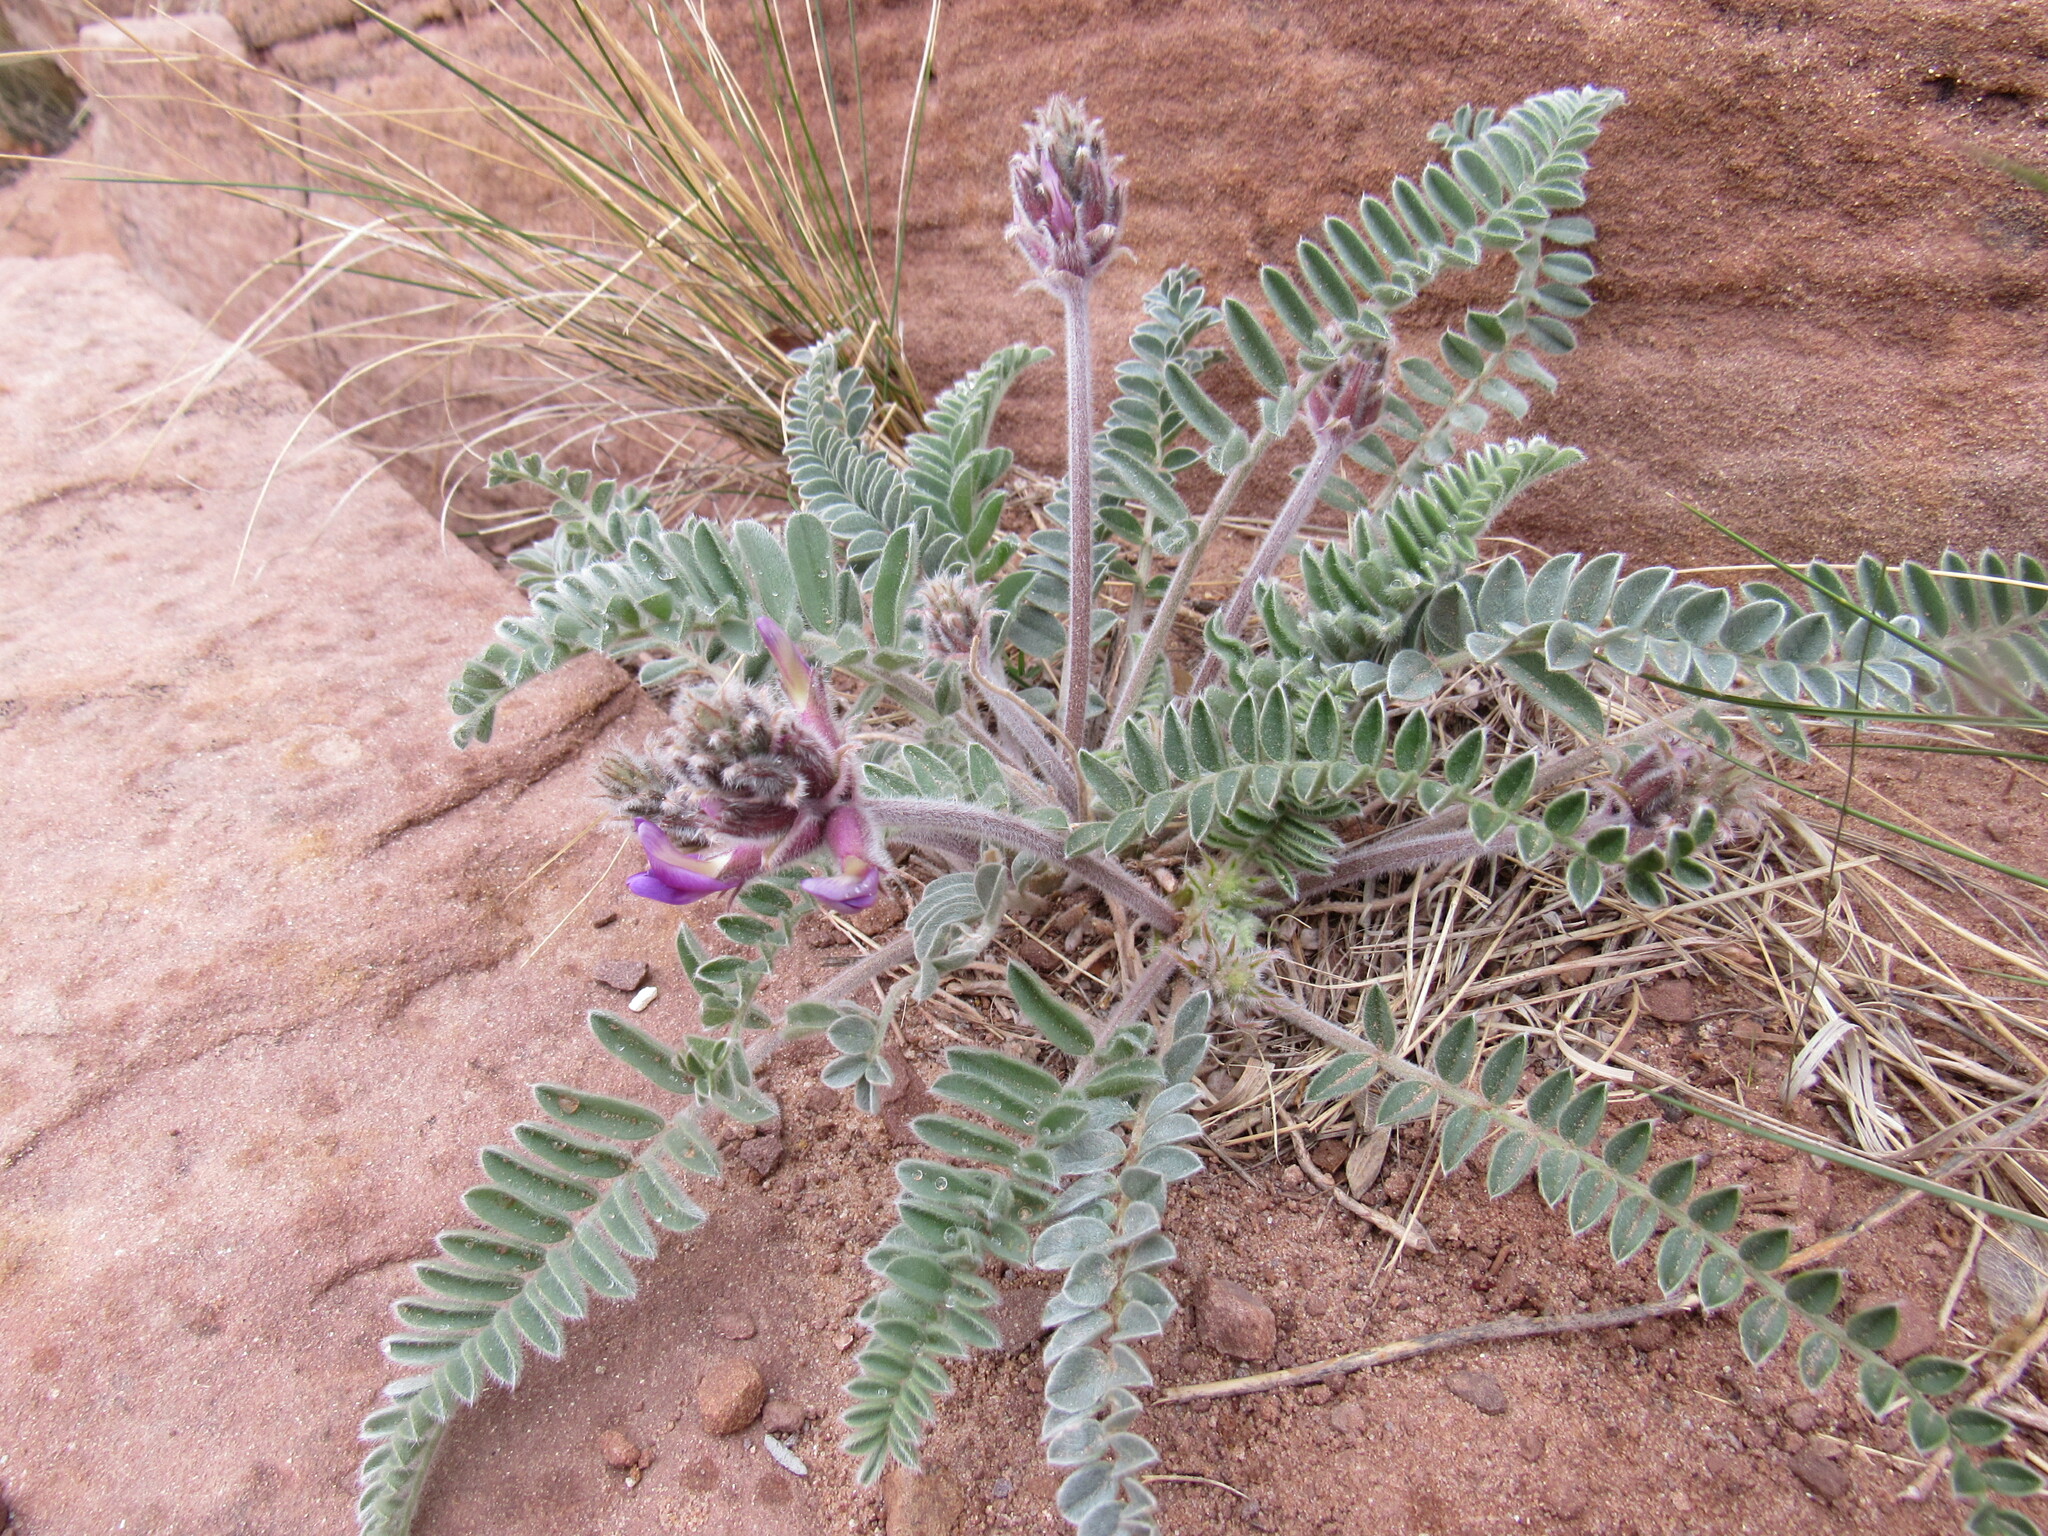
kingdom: Plantae
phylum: Tracheophyta
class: Magnoliopsida
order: Fabales
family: Fabaceae
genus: Astragalus
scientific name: Astragalus mollissimus
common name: Woolly locoweed
